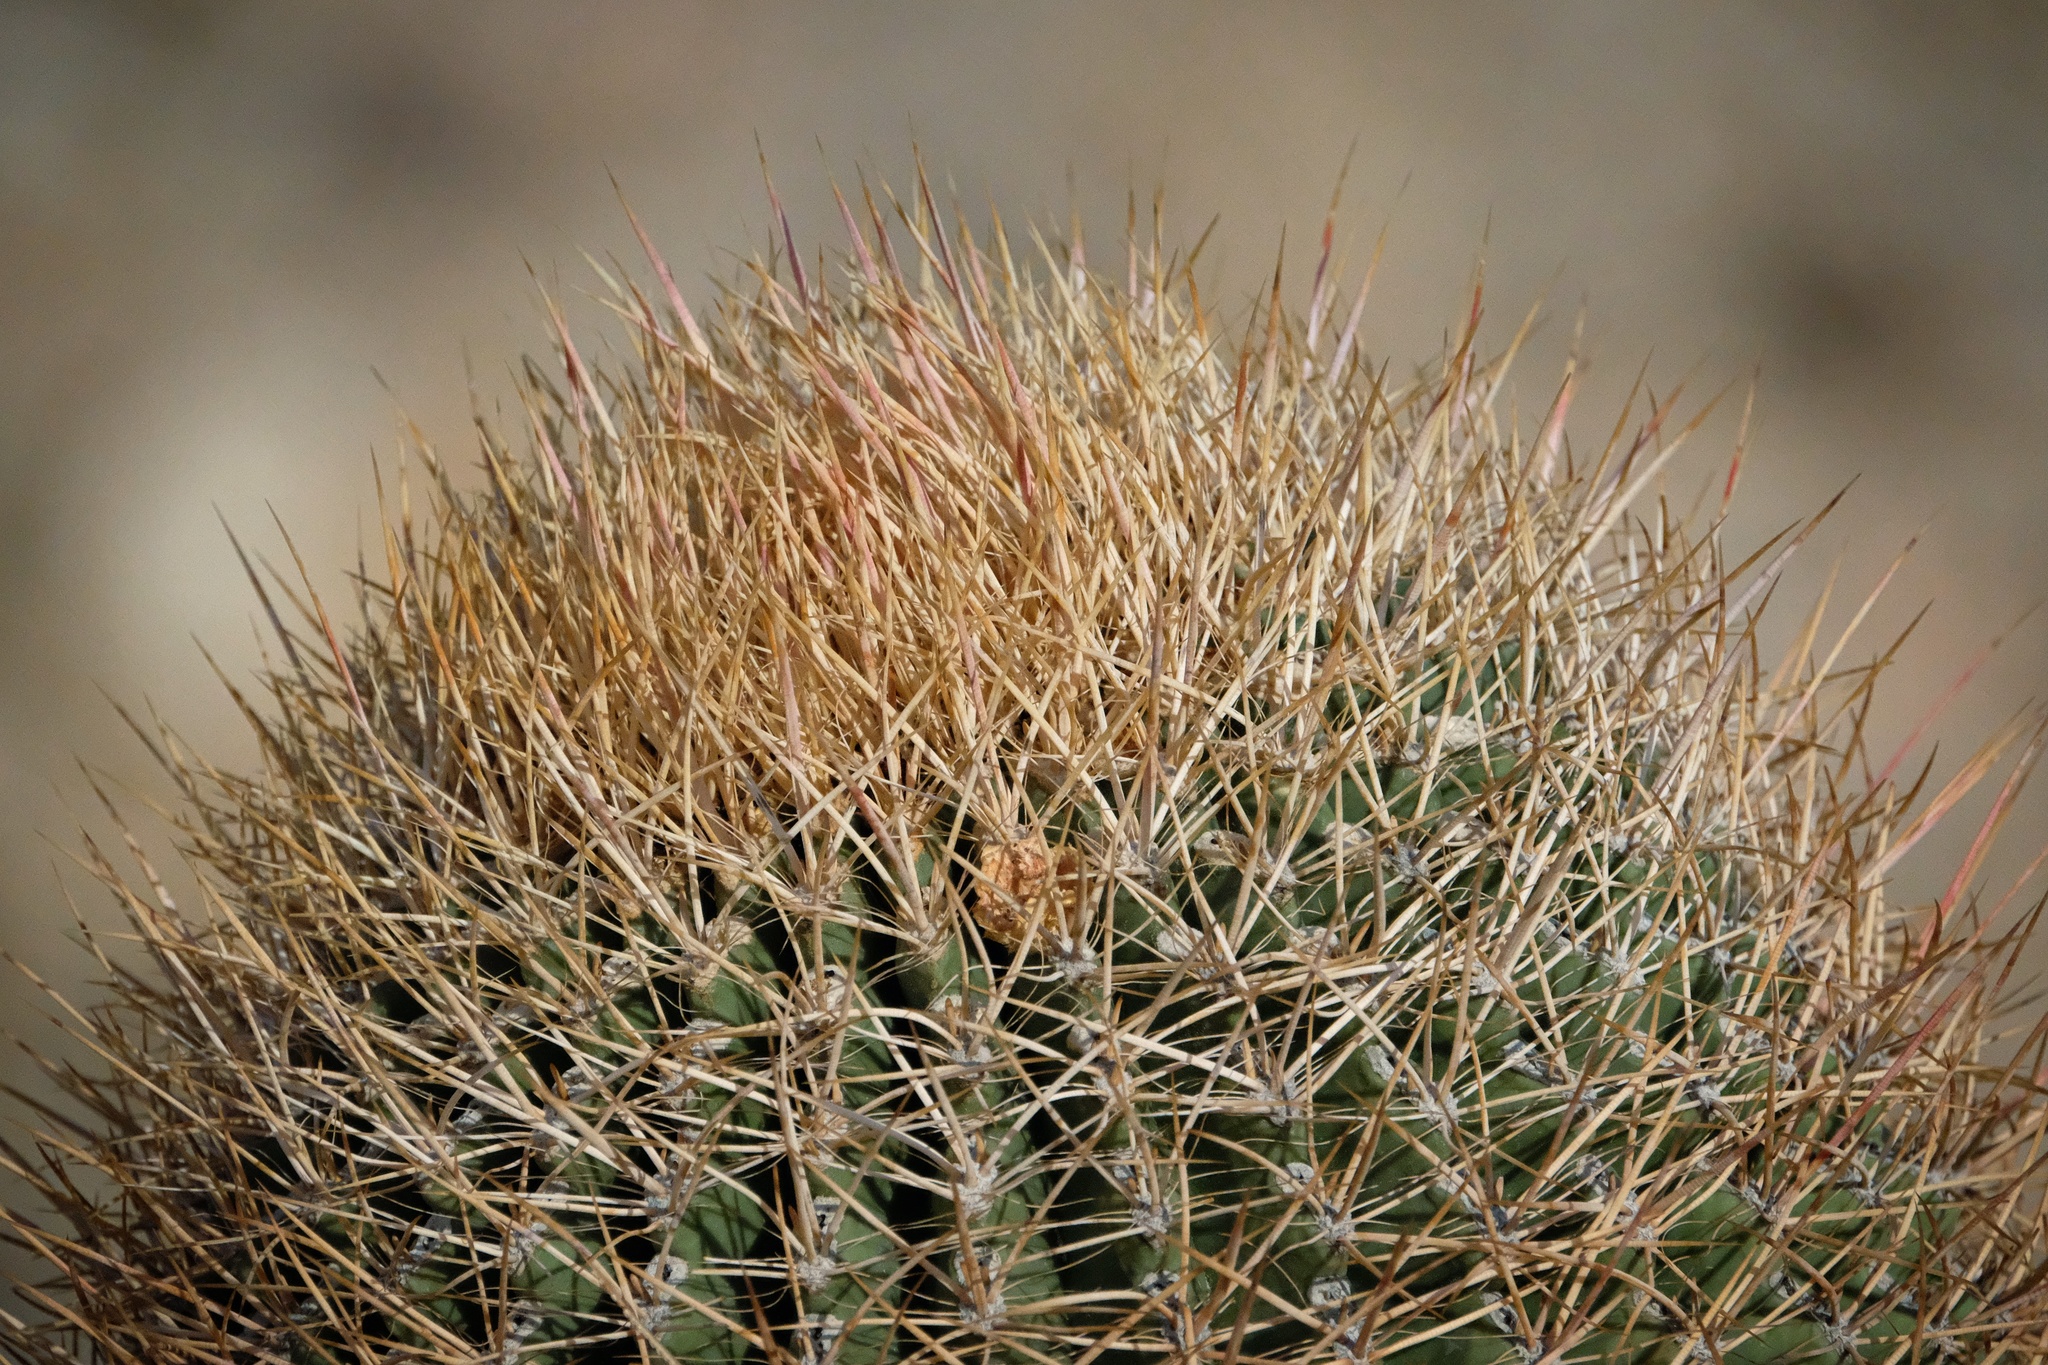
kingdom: Plantae
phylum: Tracheophyta
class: Magnoliopsida
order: Caryophyllales
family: Cactaceae
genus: Ferocactus
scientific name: Ferocactus cylindraceus
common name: California barrel cactus
